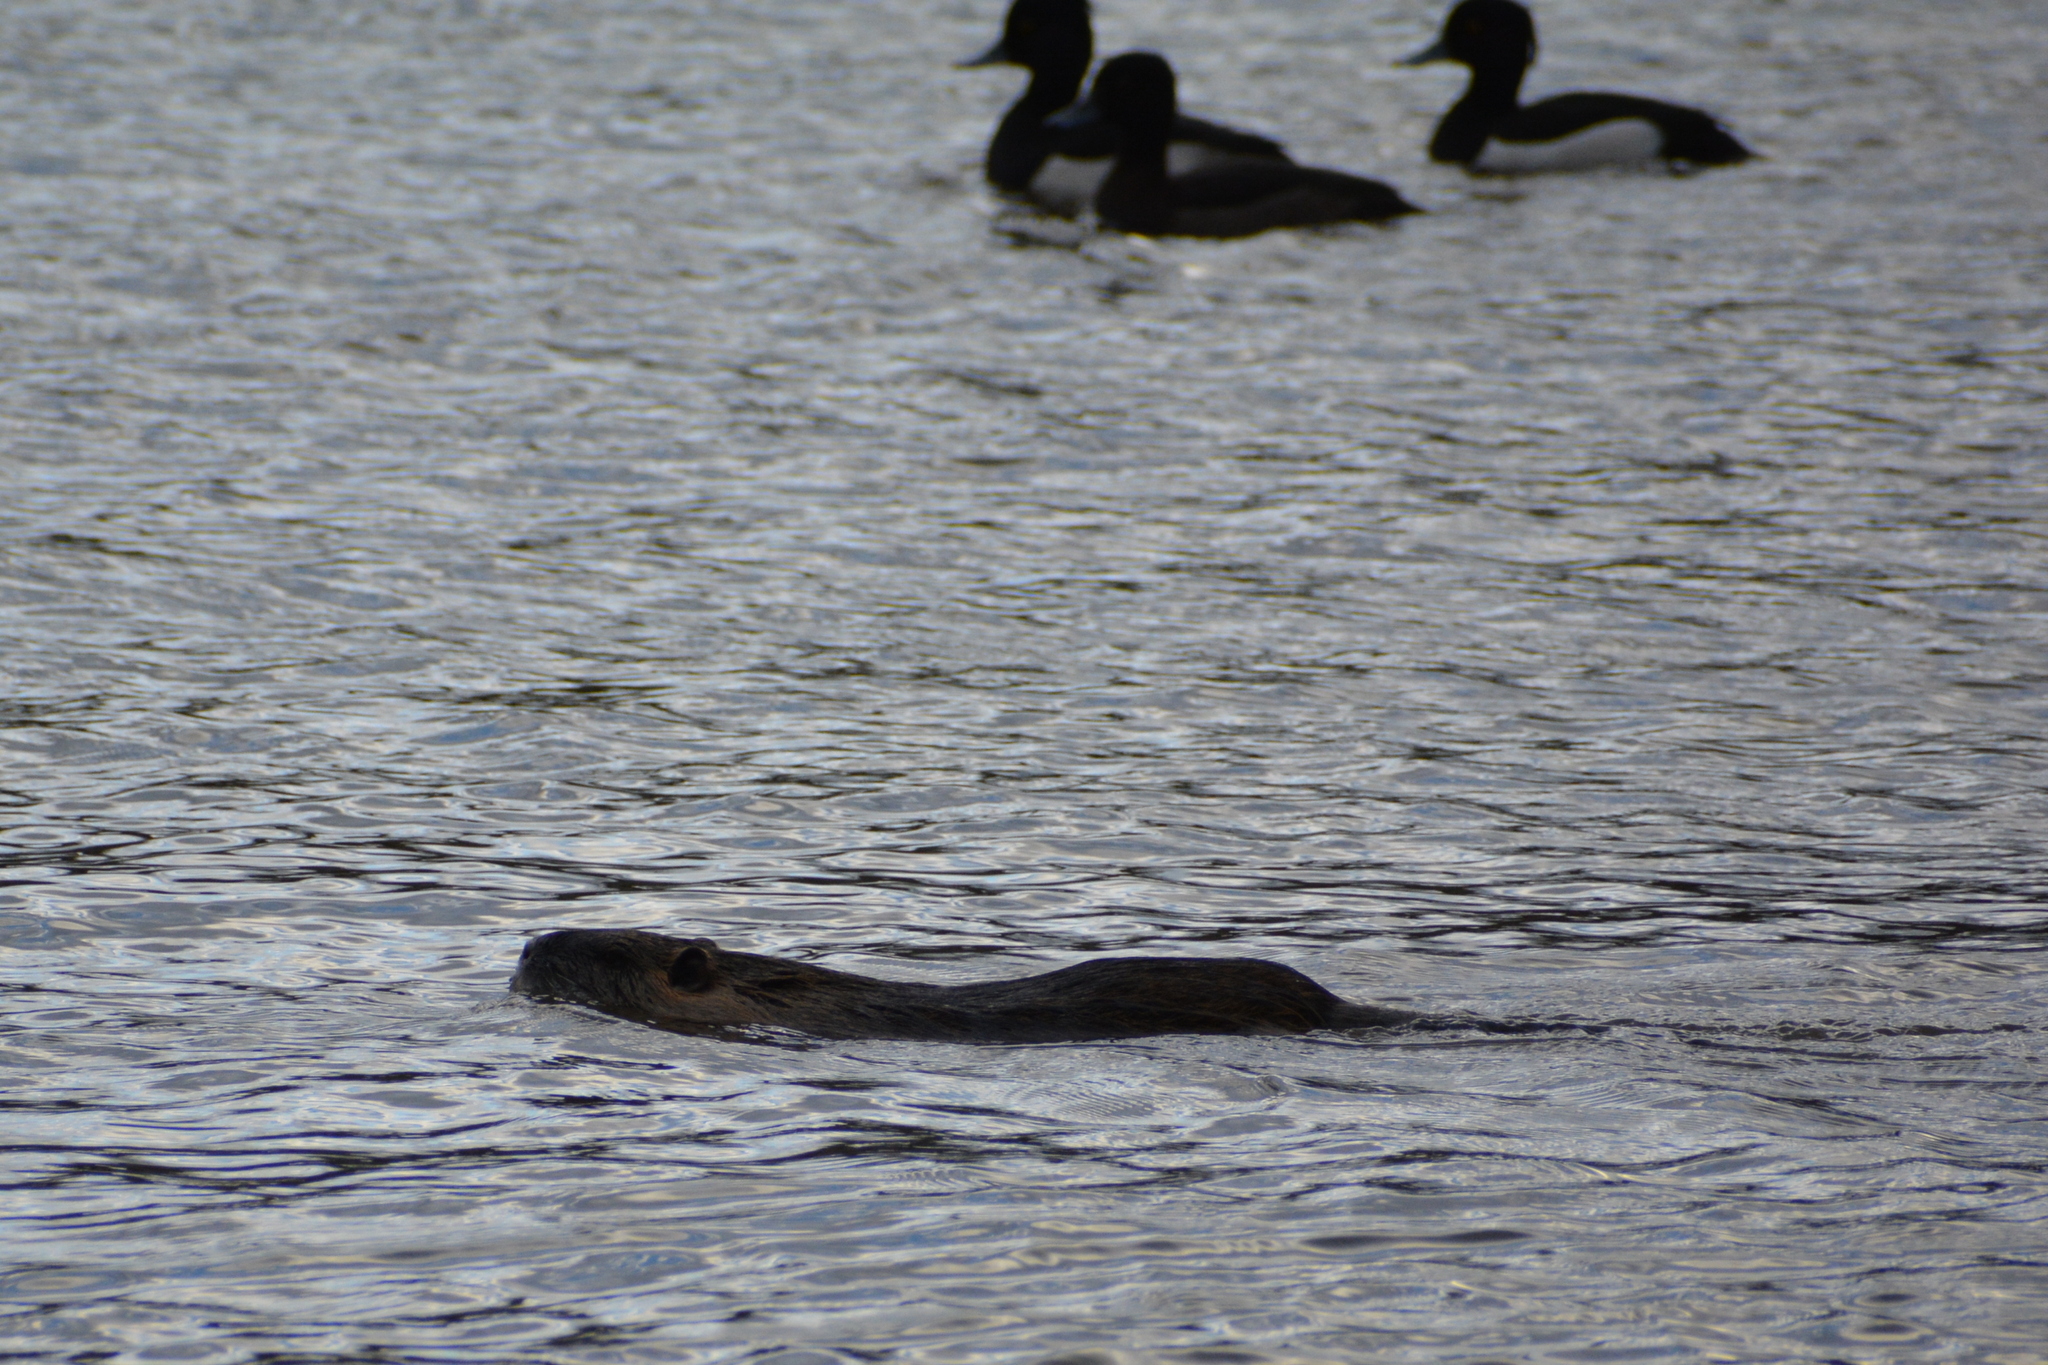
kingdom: Animalia
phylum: Chordata
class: Mammalia
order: Rodentia
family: Myocastoridae
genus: Myocastor
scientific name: Myocastor coypus
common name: Coypu
